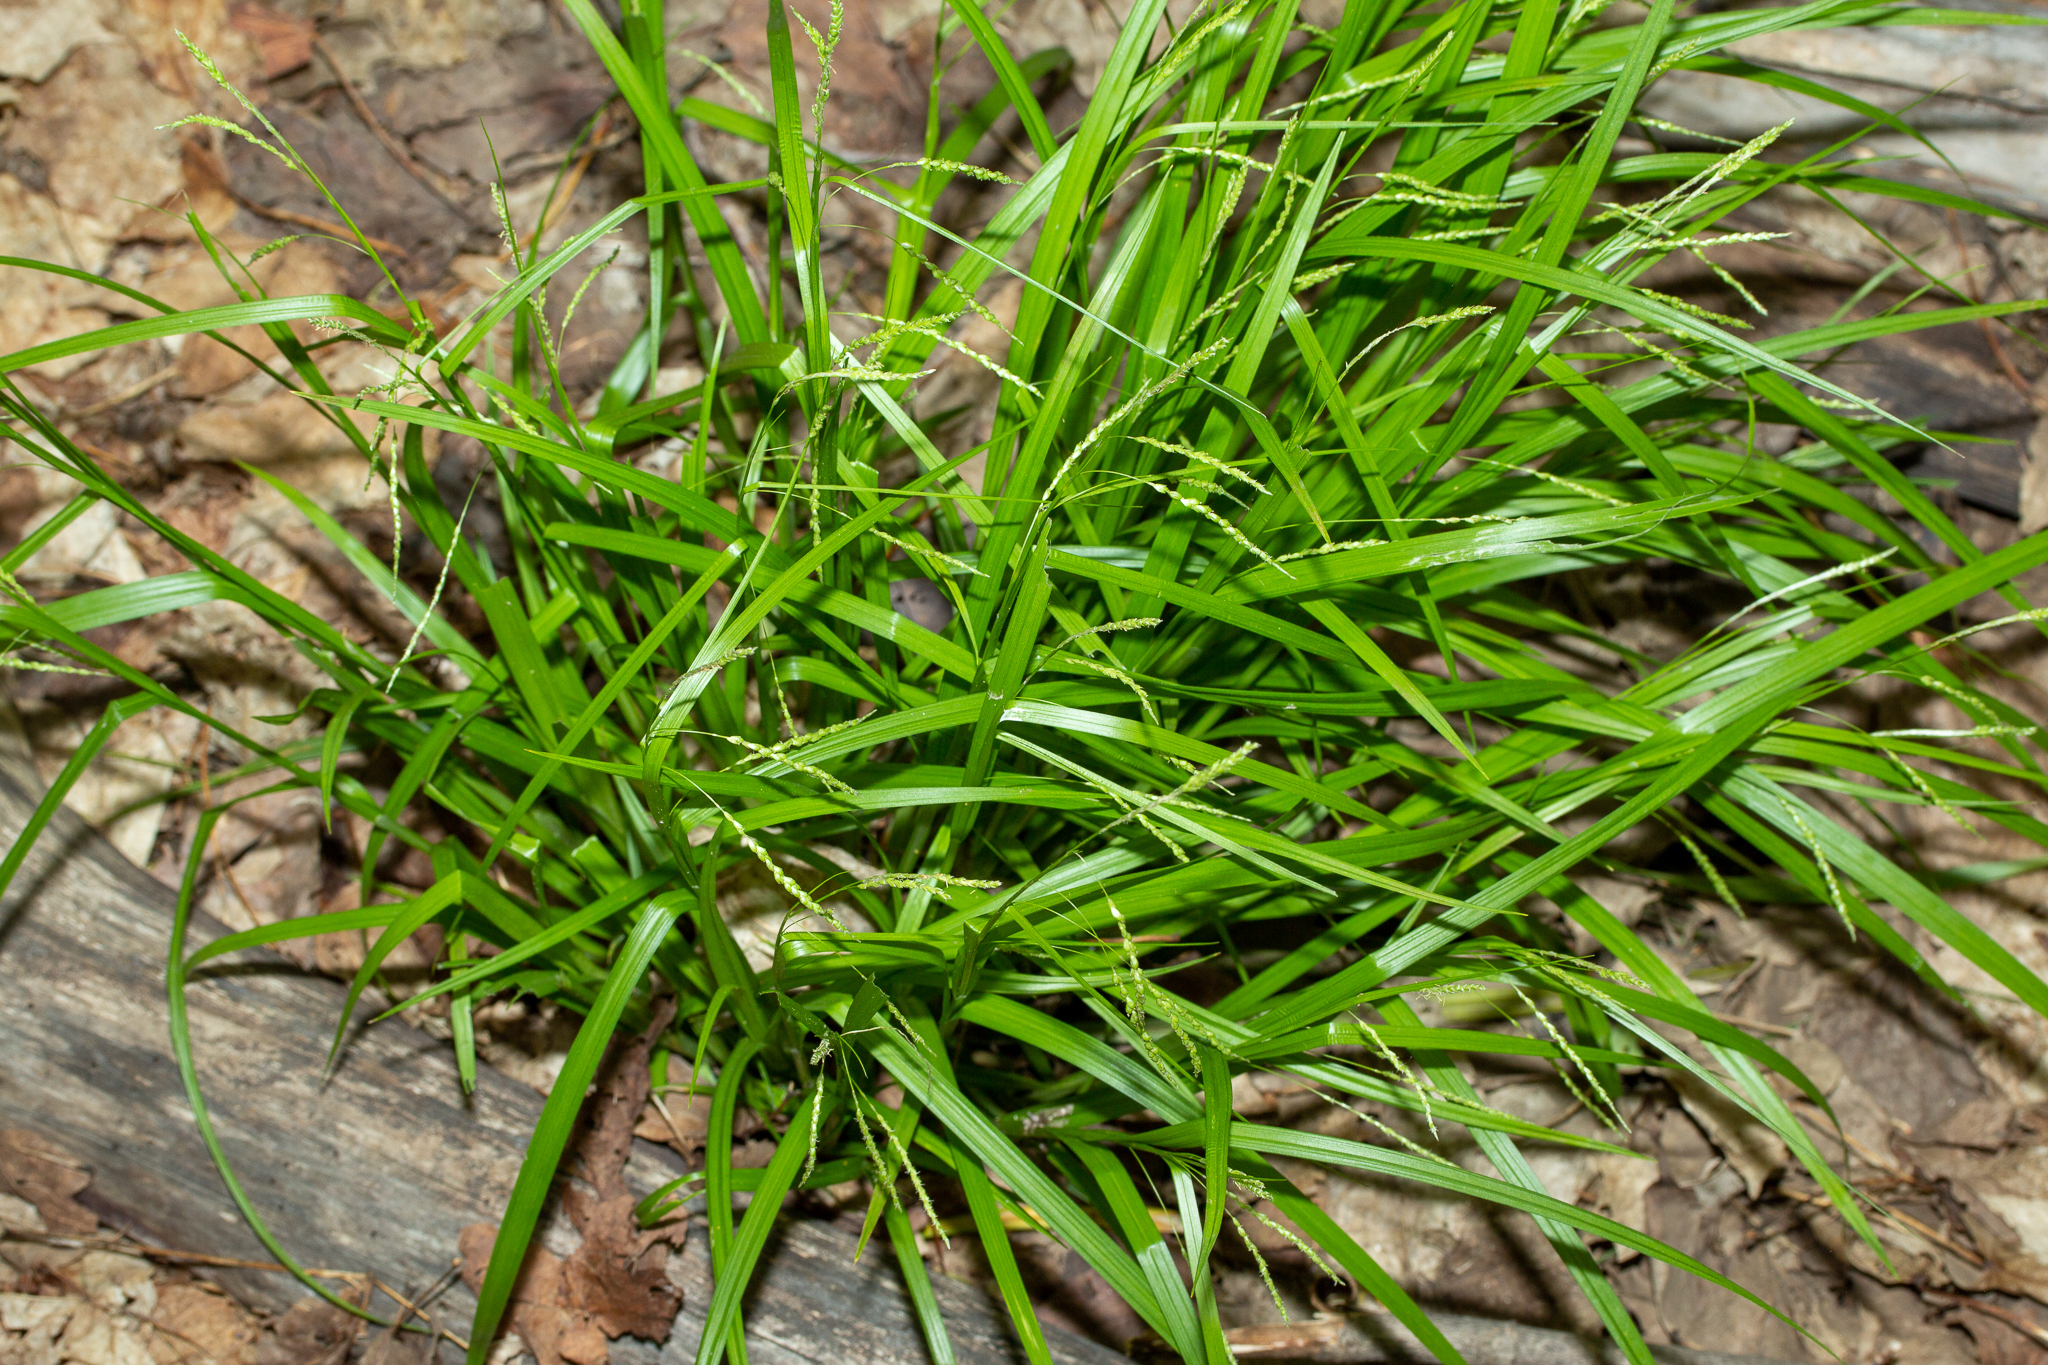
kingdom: Plantae
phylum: Tracheophyta
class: Liliopsida
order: Poales
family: Cyperaceae
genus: Carex
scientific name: Carex gracillima
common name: Graceful sedge
